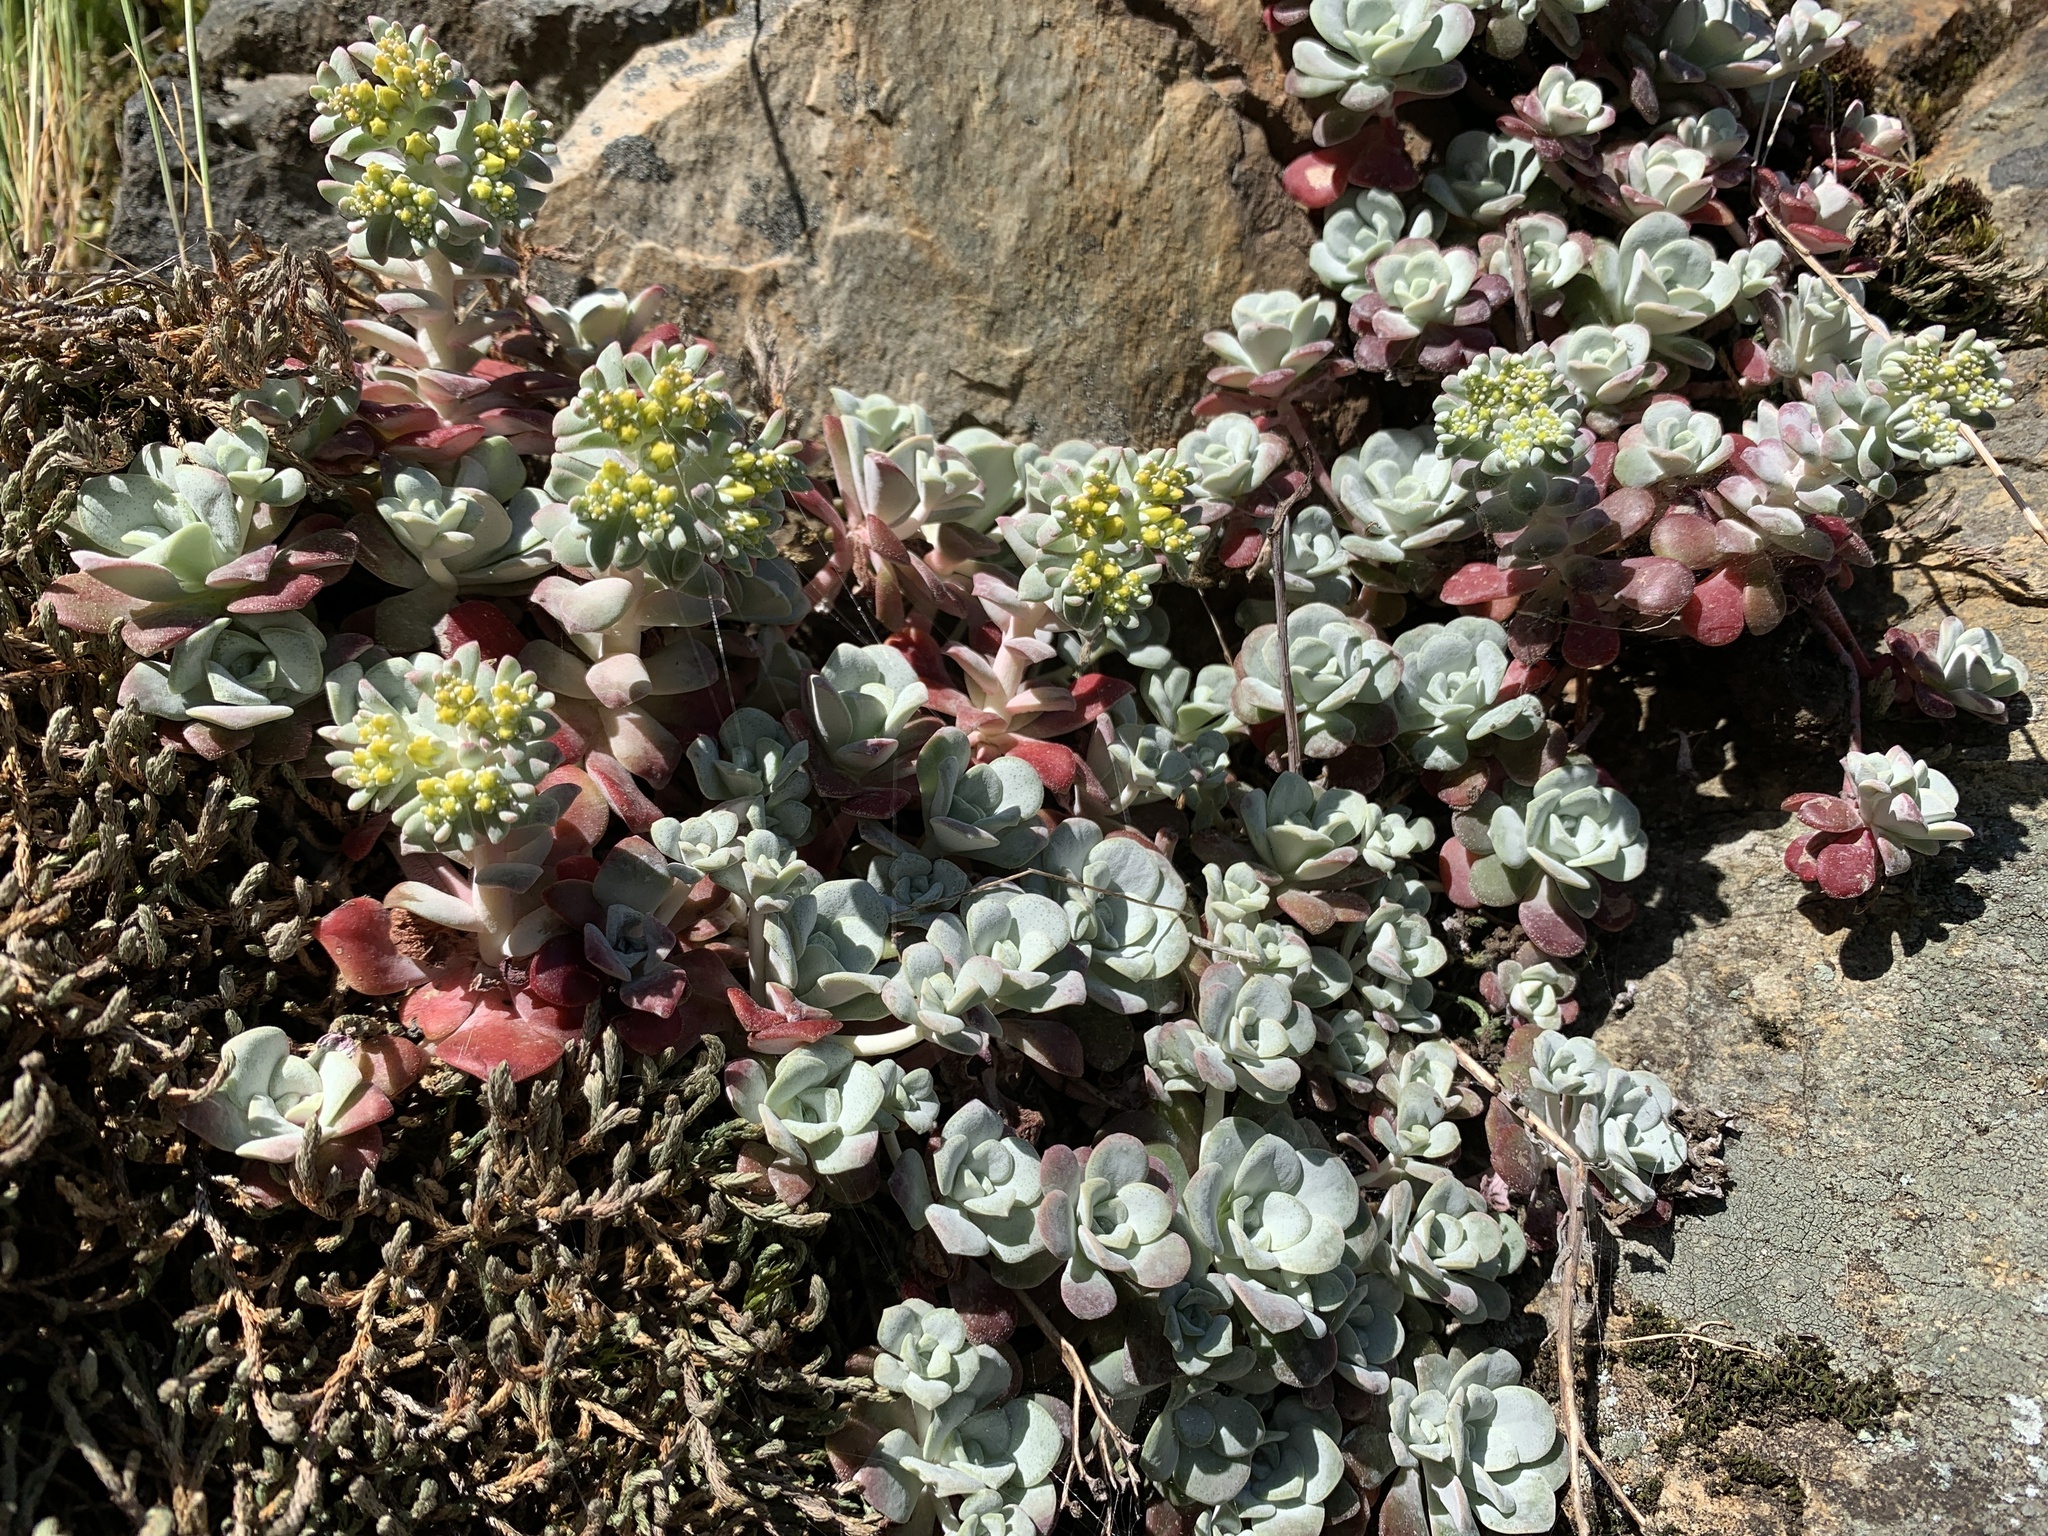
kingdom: Plantae
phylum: Tracheophyta
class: Magnoliopsida
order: Saxifragales
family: Crassulaceae
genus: Sedum
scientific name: Sedum spathulifolium
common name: Colorado stonecrop
